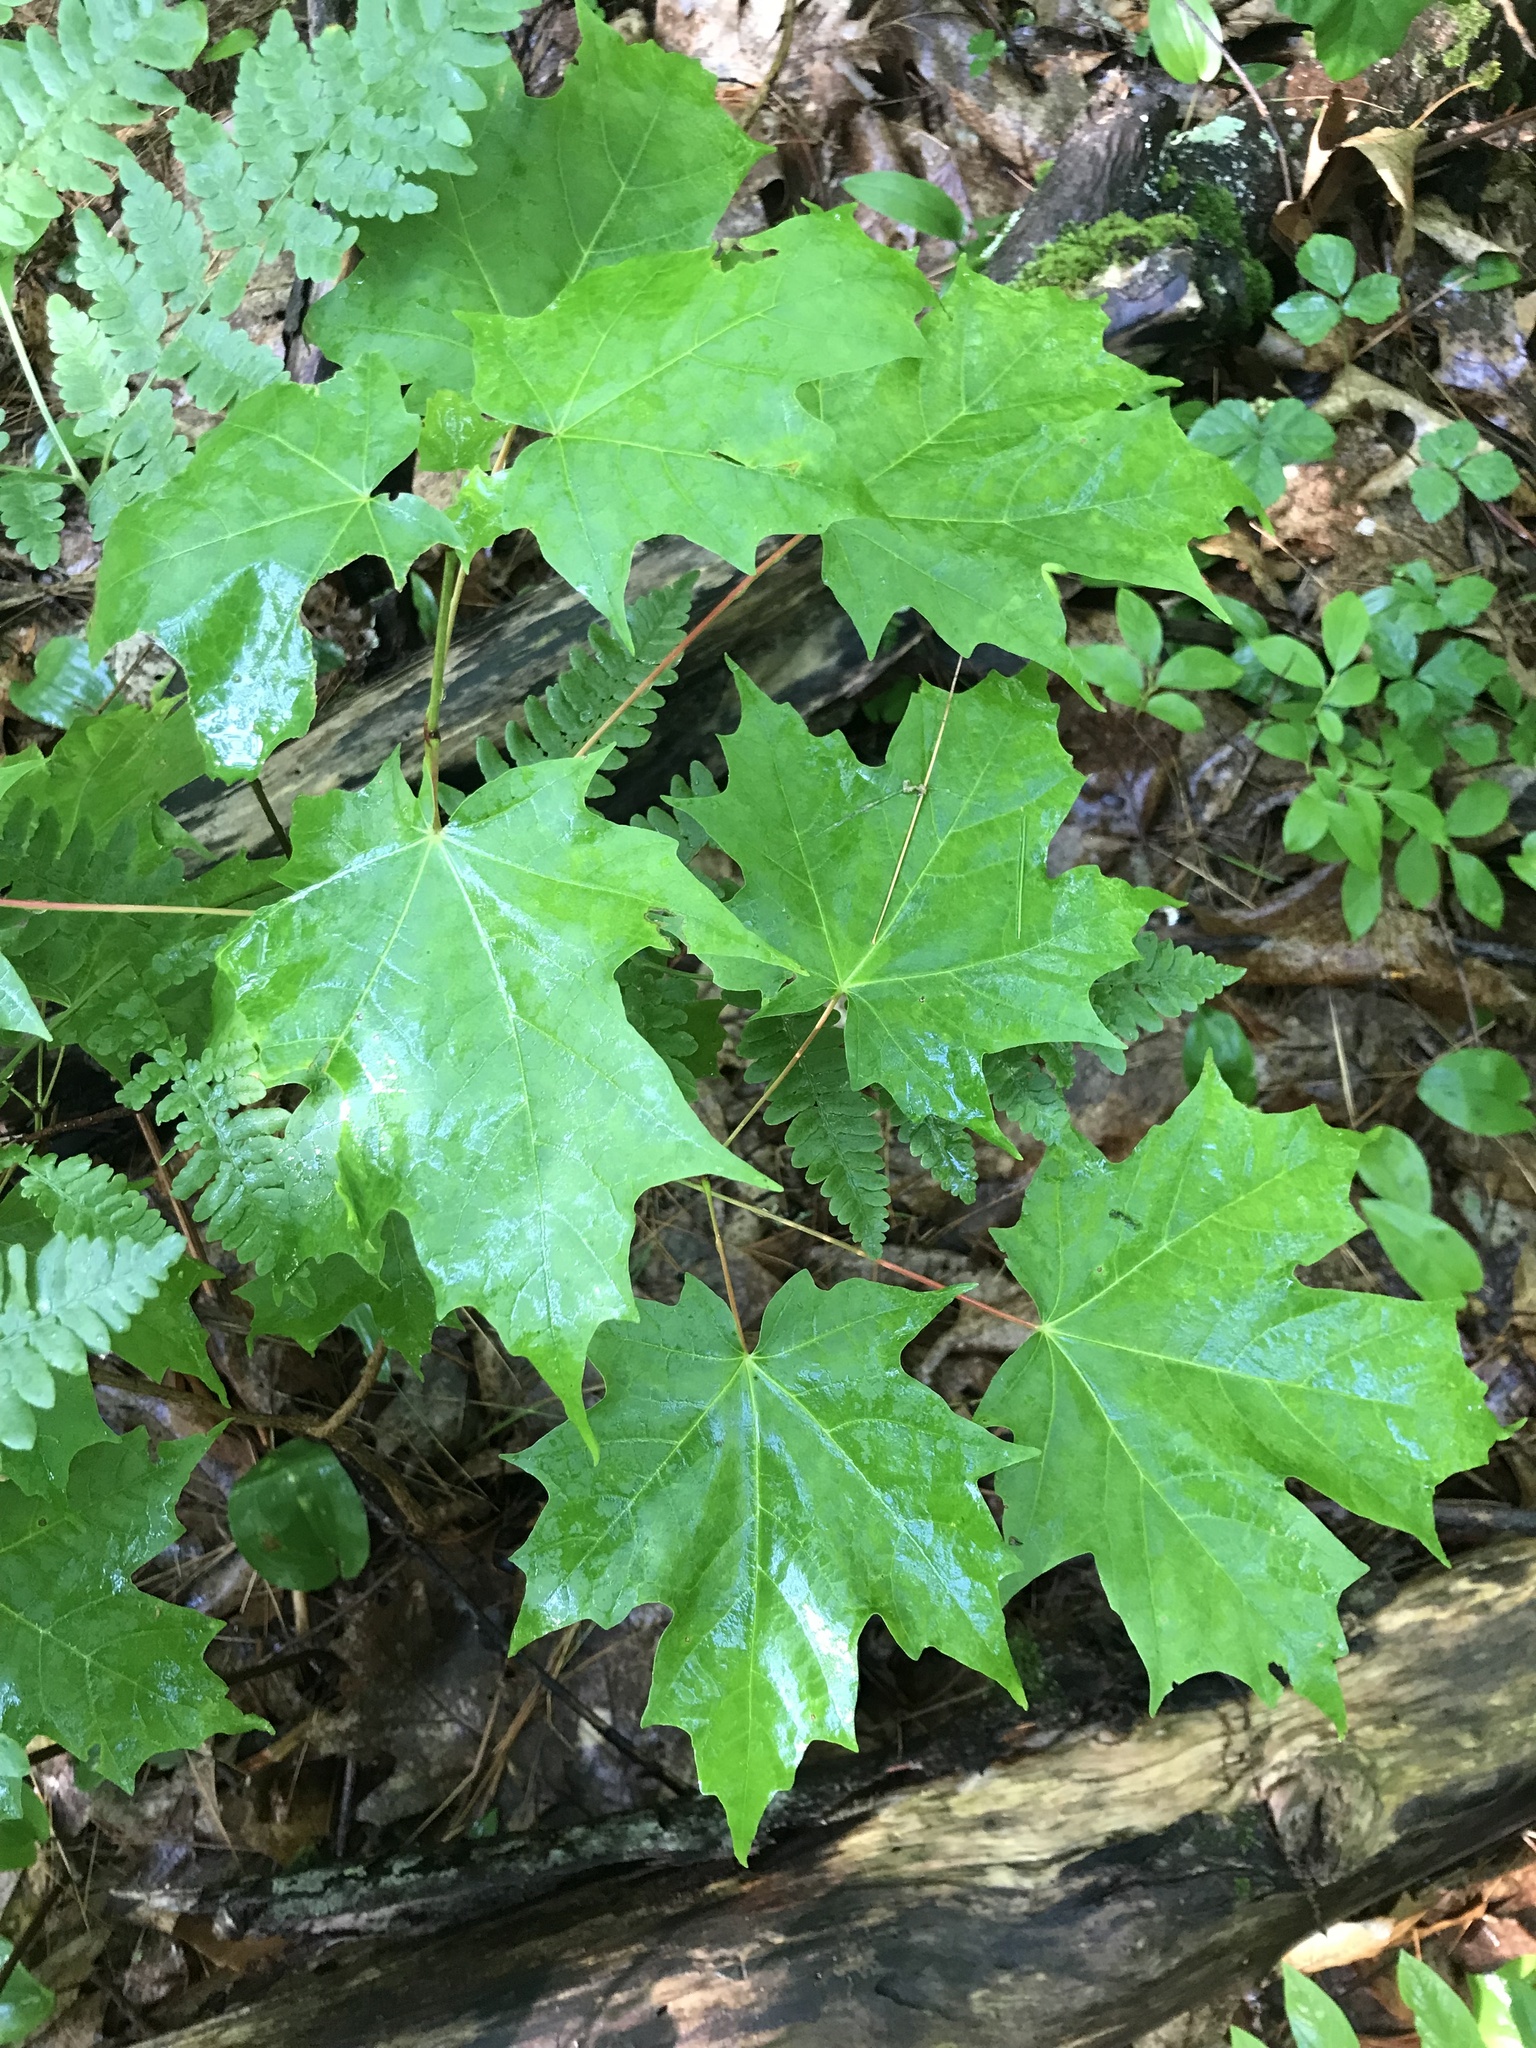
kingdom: Plantae
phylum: Tracheophyta
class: Magnoliopsida
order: Sapindales
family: Sapindaceae
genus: Acer
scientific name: Acer saccharum
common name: Sugar maple
